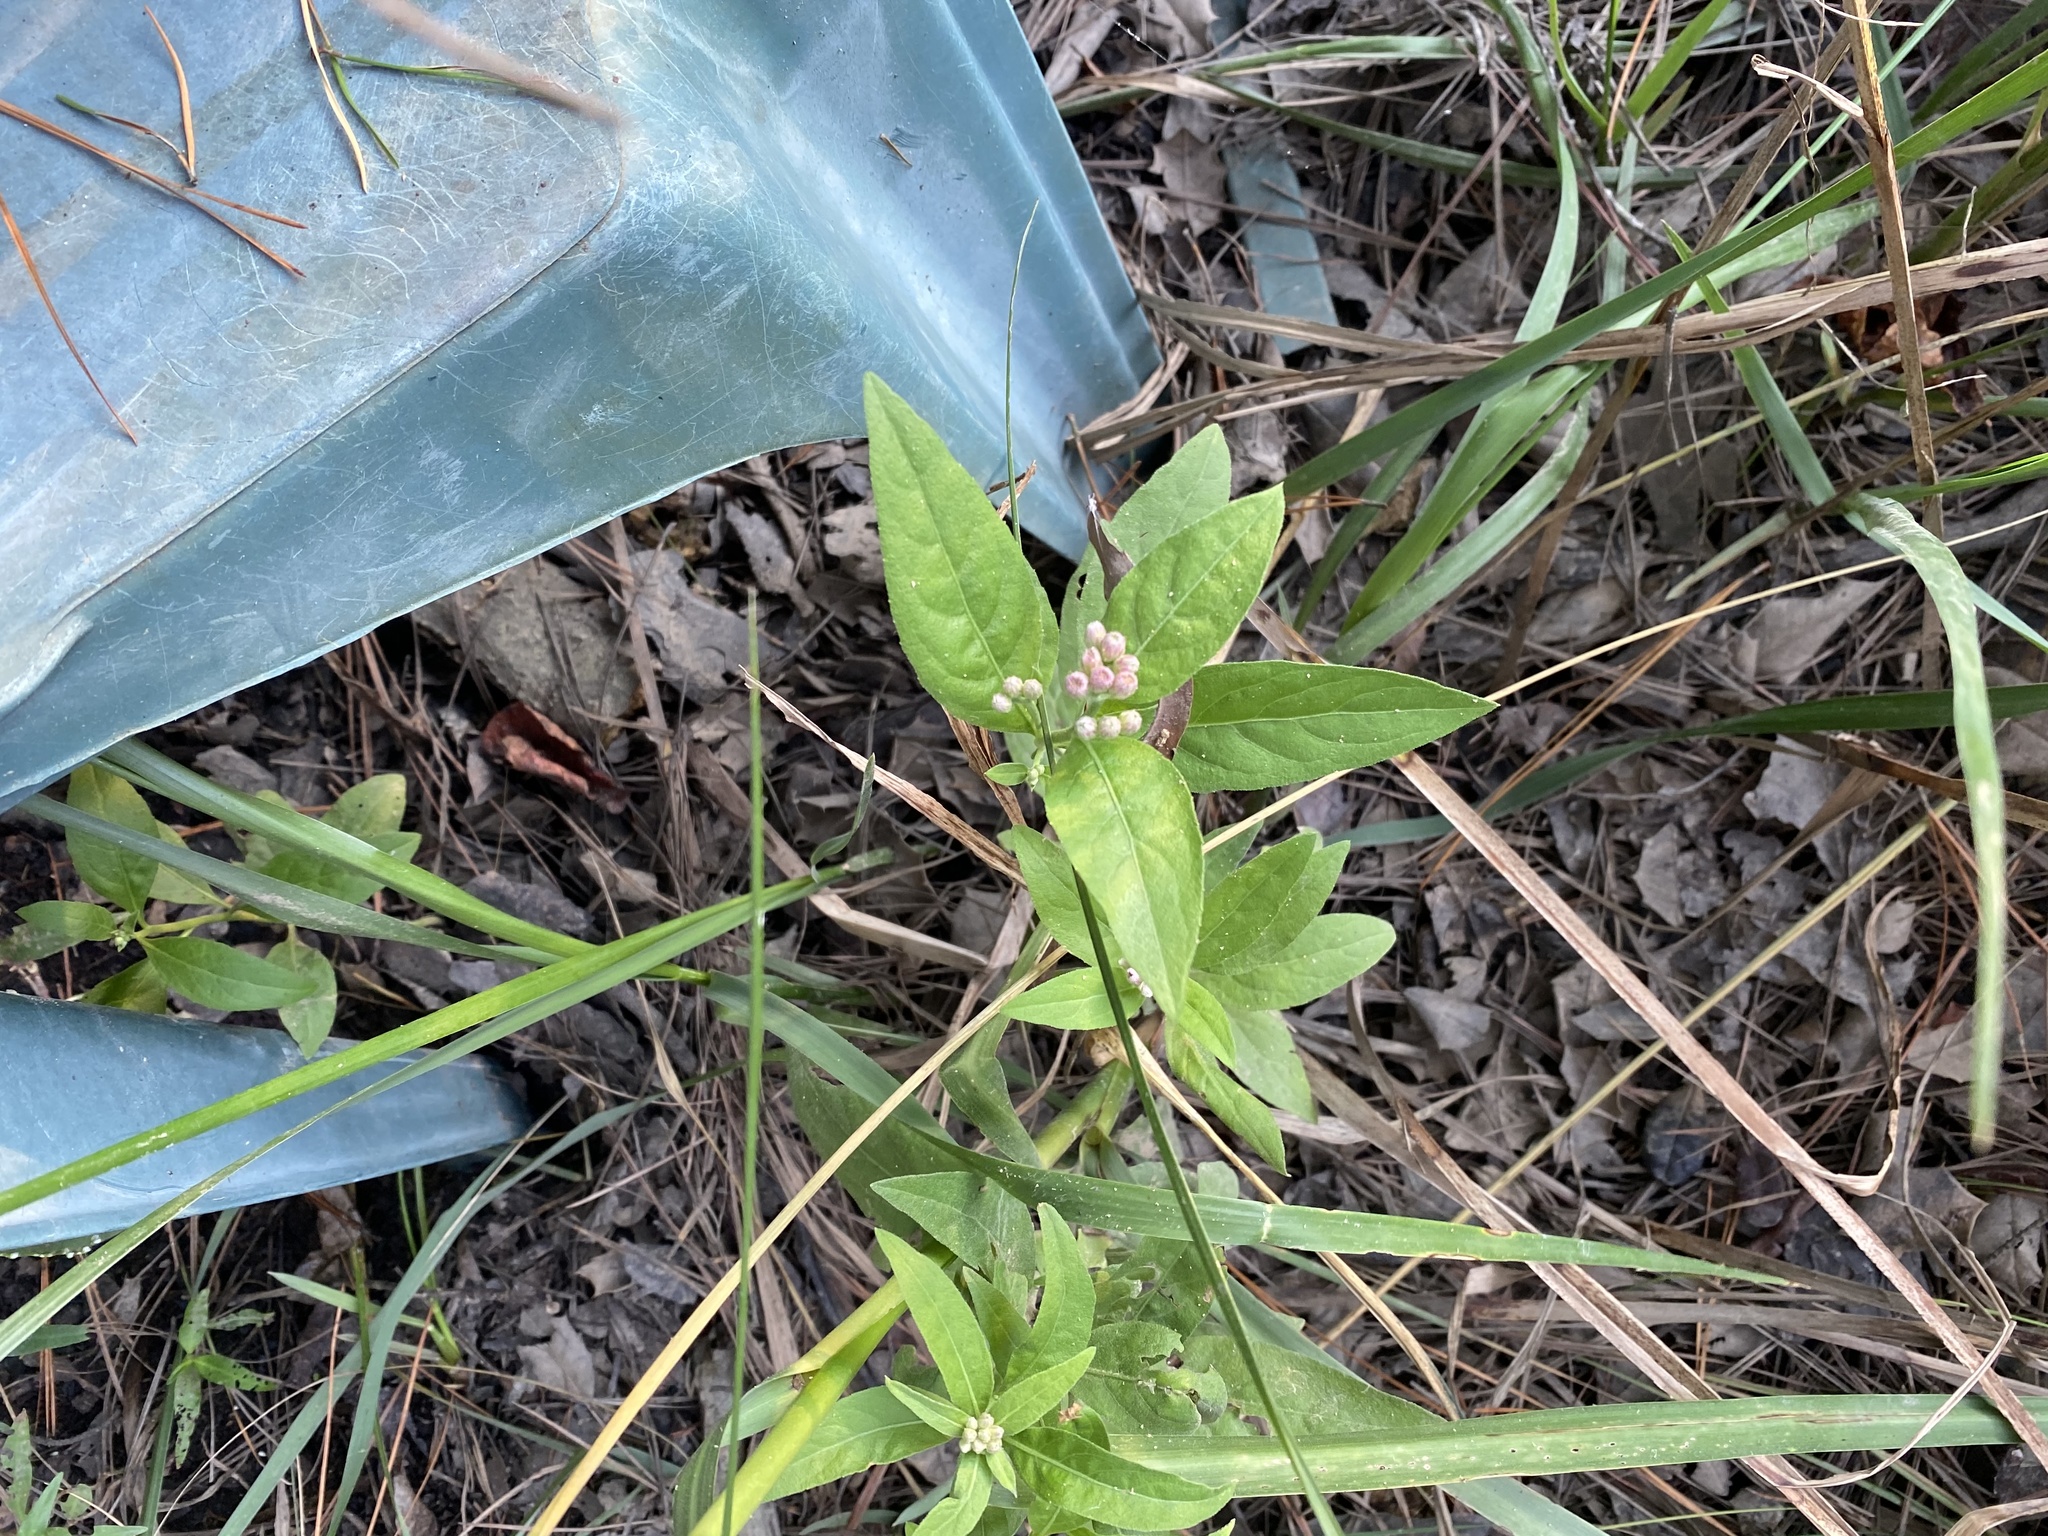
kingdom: Plantae
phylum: Tracheophyta
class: Magnoliopsida
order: Asterales
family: Asteraceae
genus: Pluchea
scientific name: Pluchea odorata
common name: Saltmarsh fleabane
